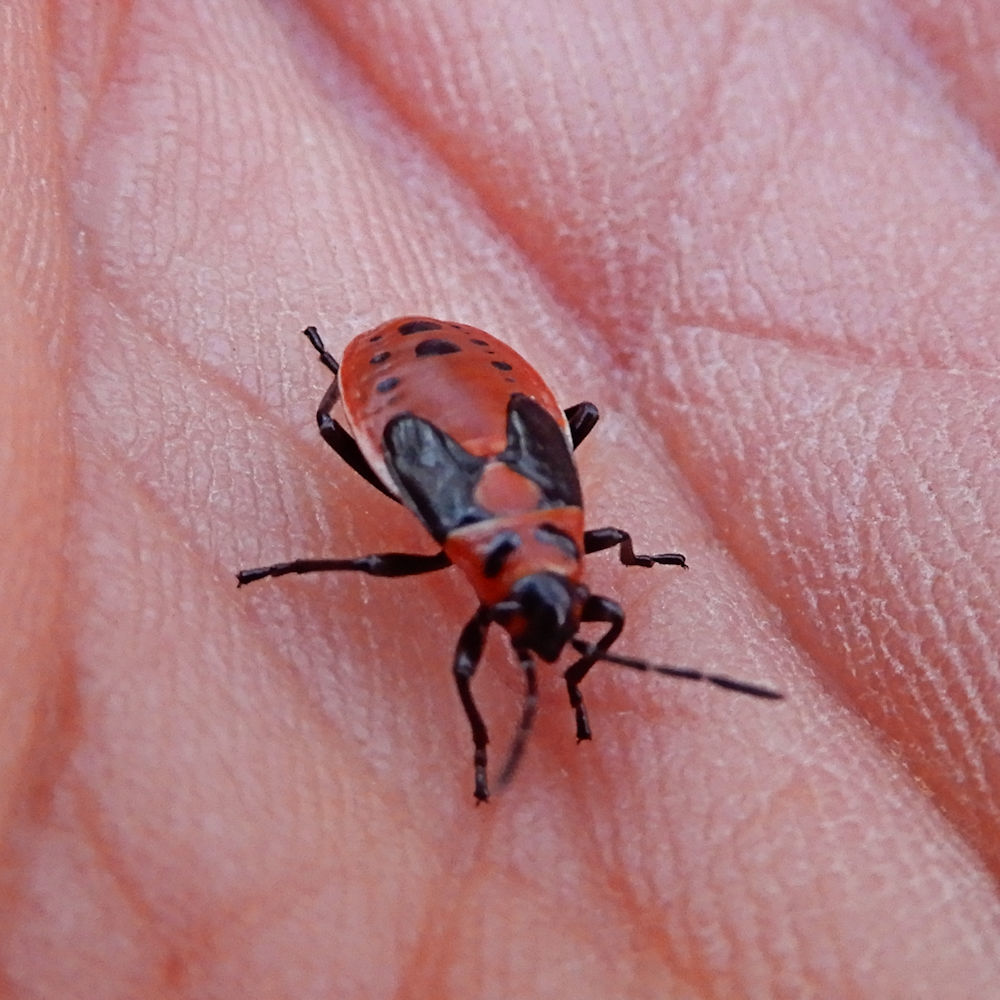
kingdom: Animalia
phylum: Arthropoda
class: Insecta
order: Hemiptera
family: Lygaeidae
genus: Lygaeus
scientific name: Lygaeus kalmii
